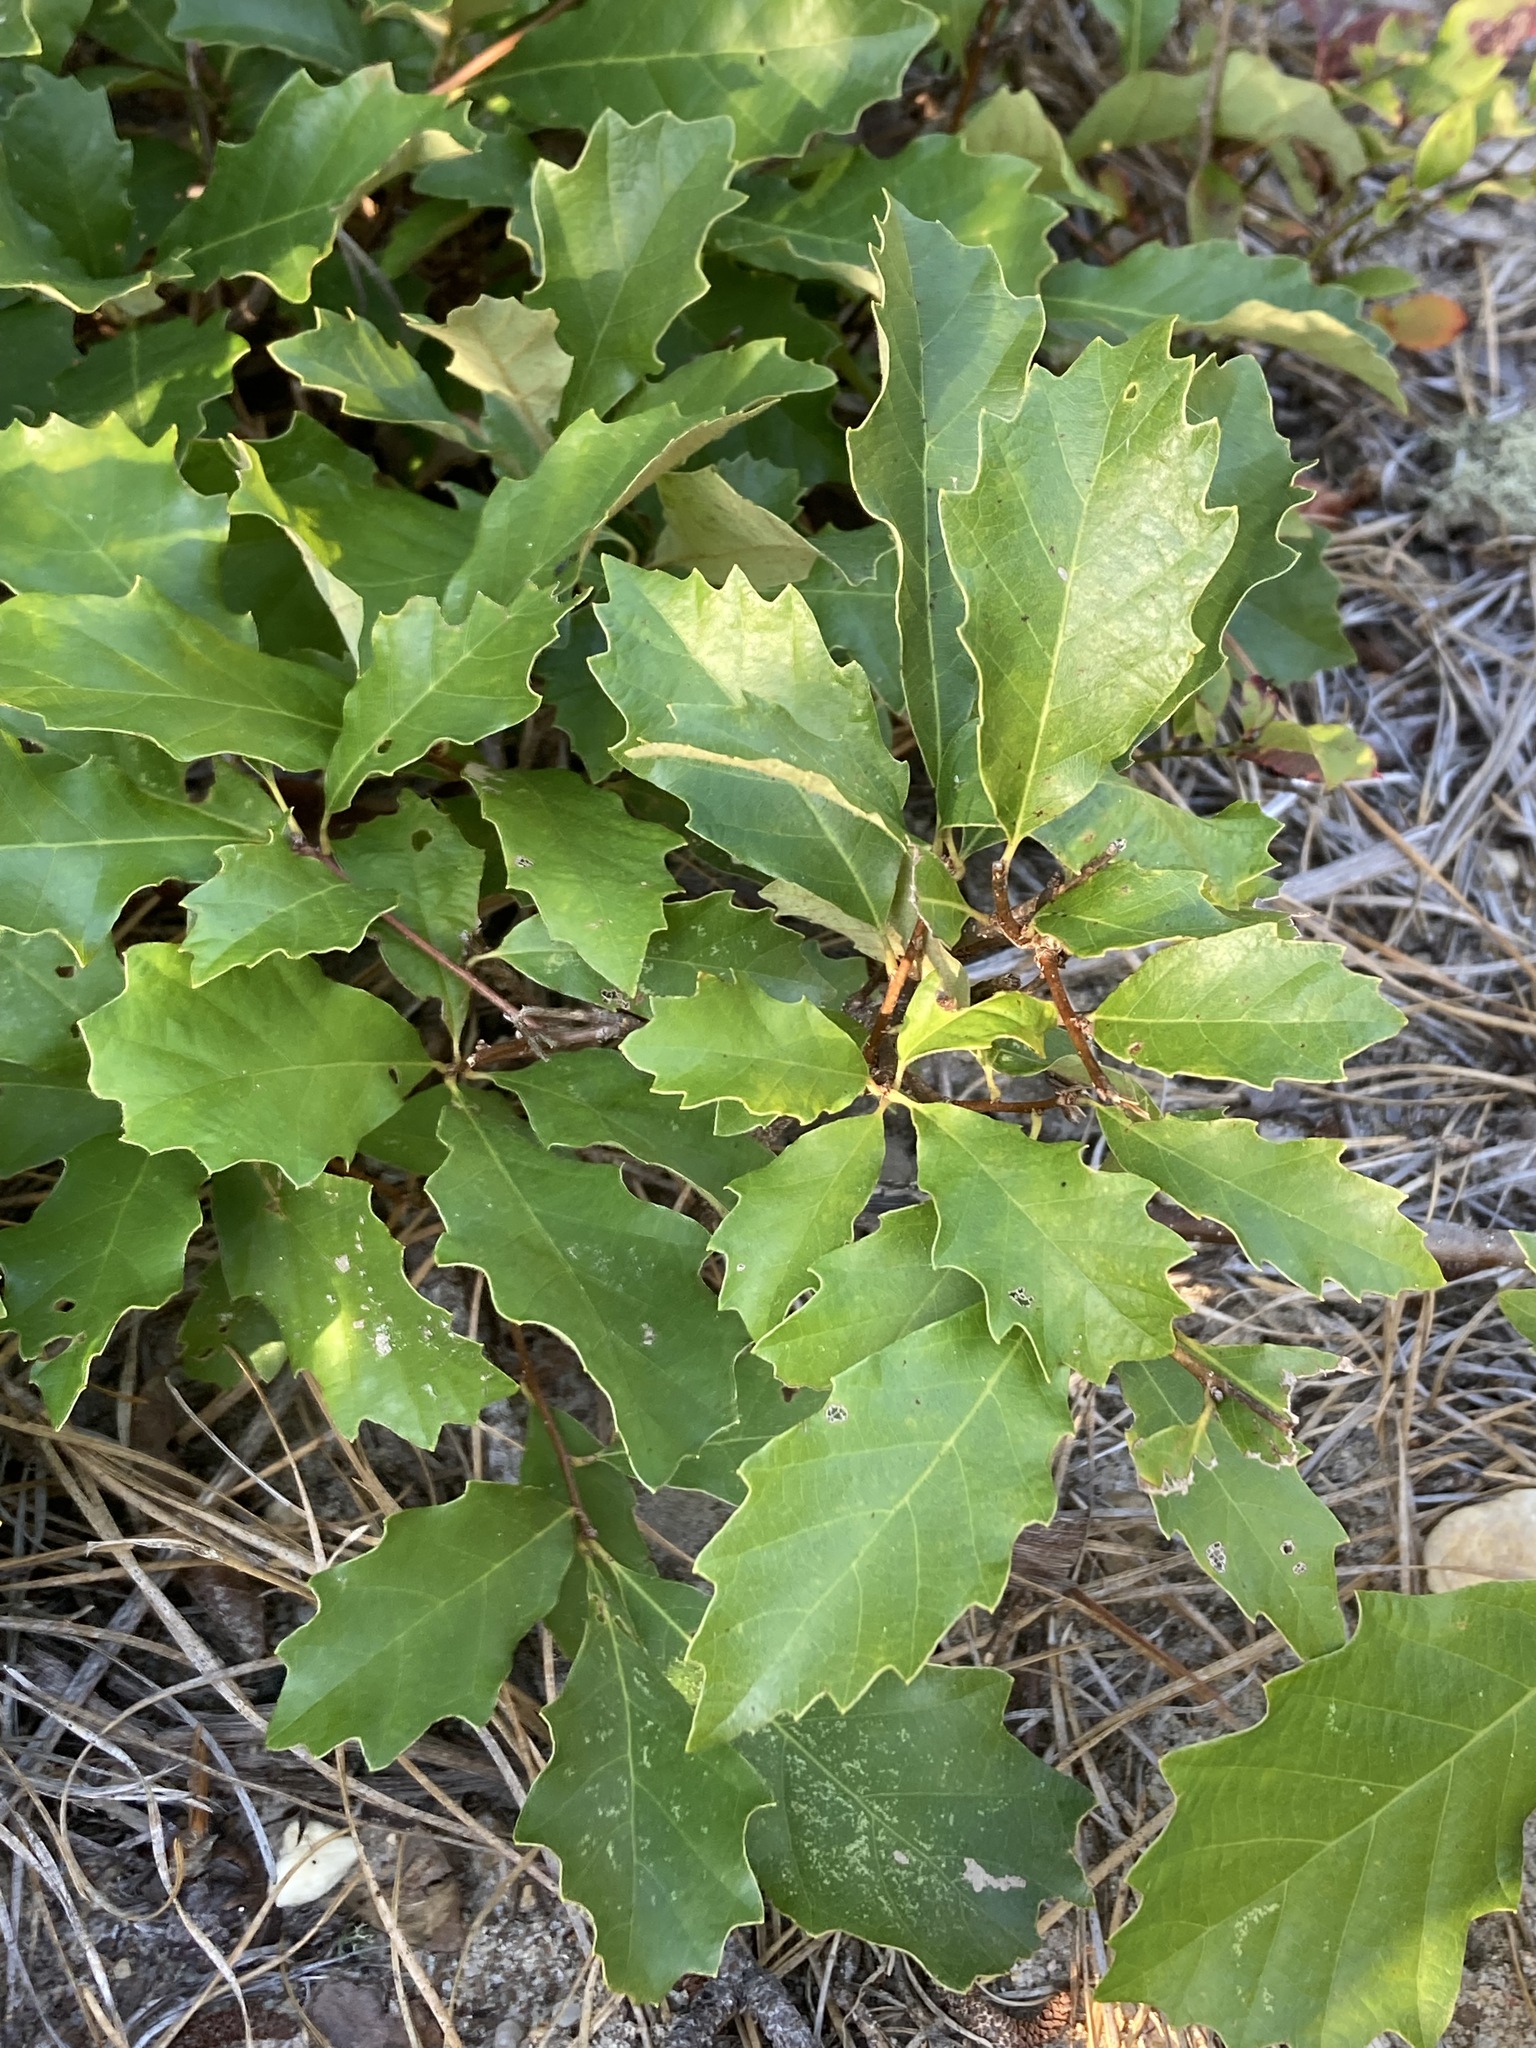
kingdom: Plantae
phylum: Tracheophyta
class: Magnoliopsida
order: Fagales
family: Fagaceae
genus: Quercus
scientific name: Quercus prinoides
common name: Dwarf chinkapin oak
